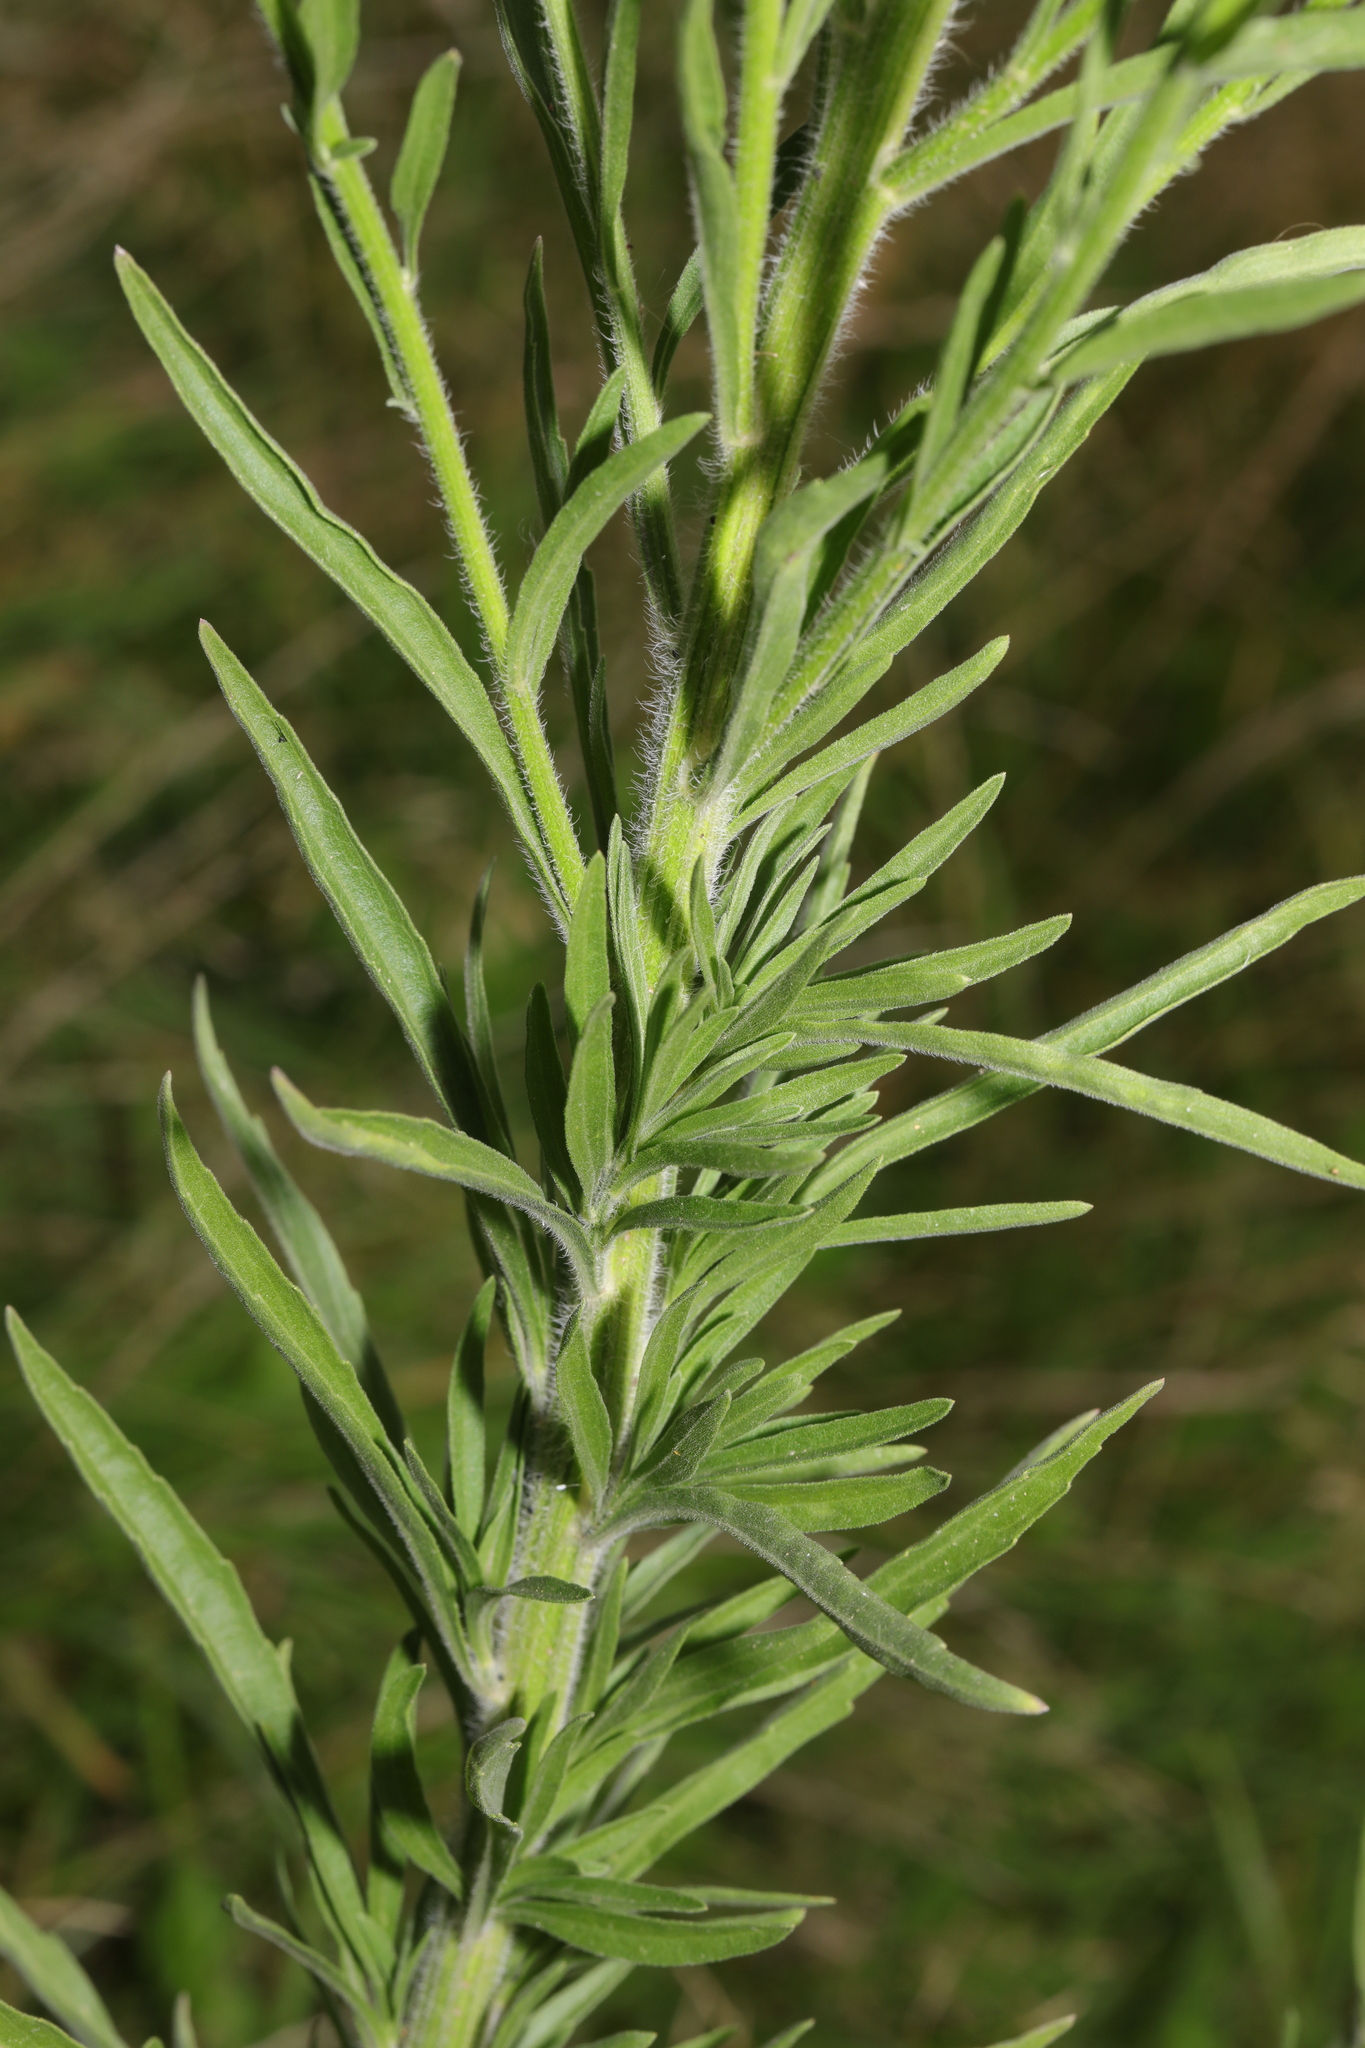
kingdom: Plantae
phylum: Tracheophyta
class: Magnoliopsida
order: Asterales
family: Asteraceae
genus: Erigeron
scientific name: Erigeron sumatrensis
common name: Daisy
